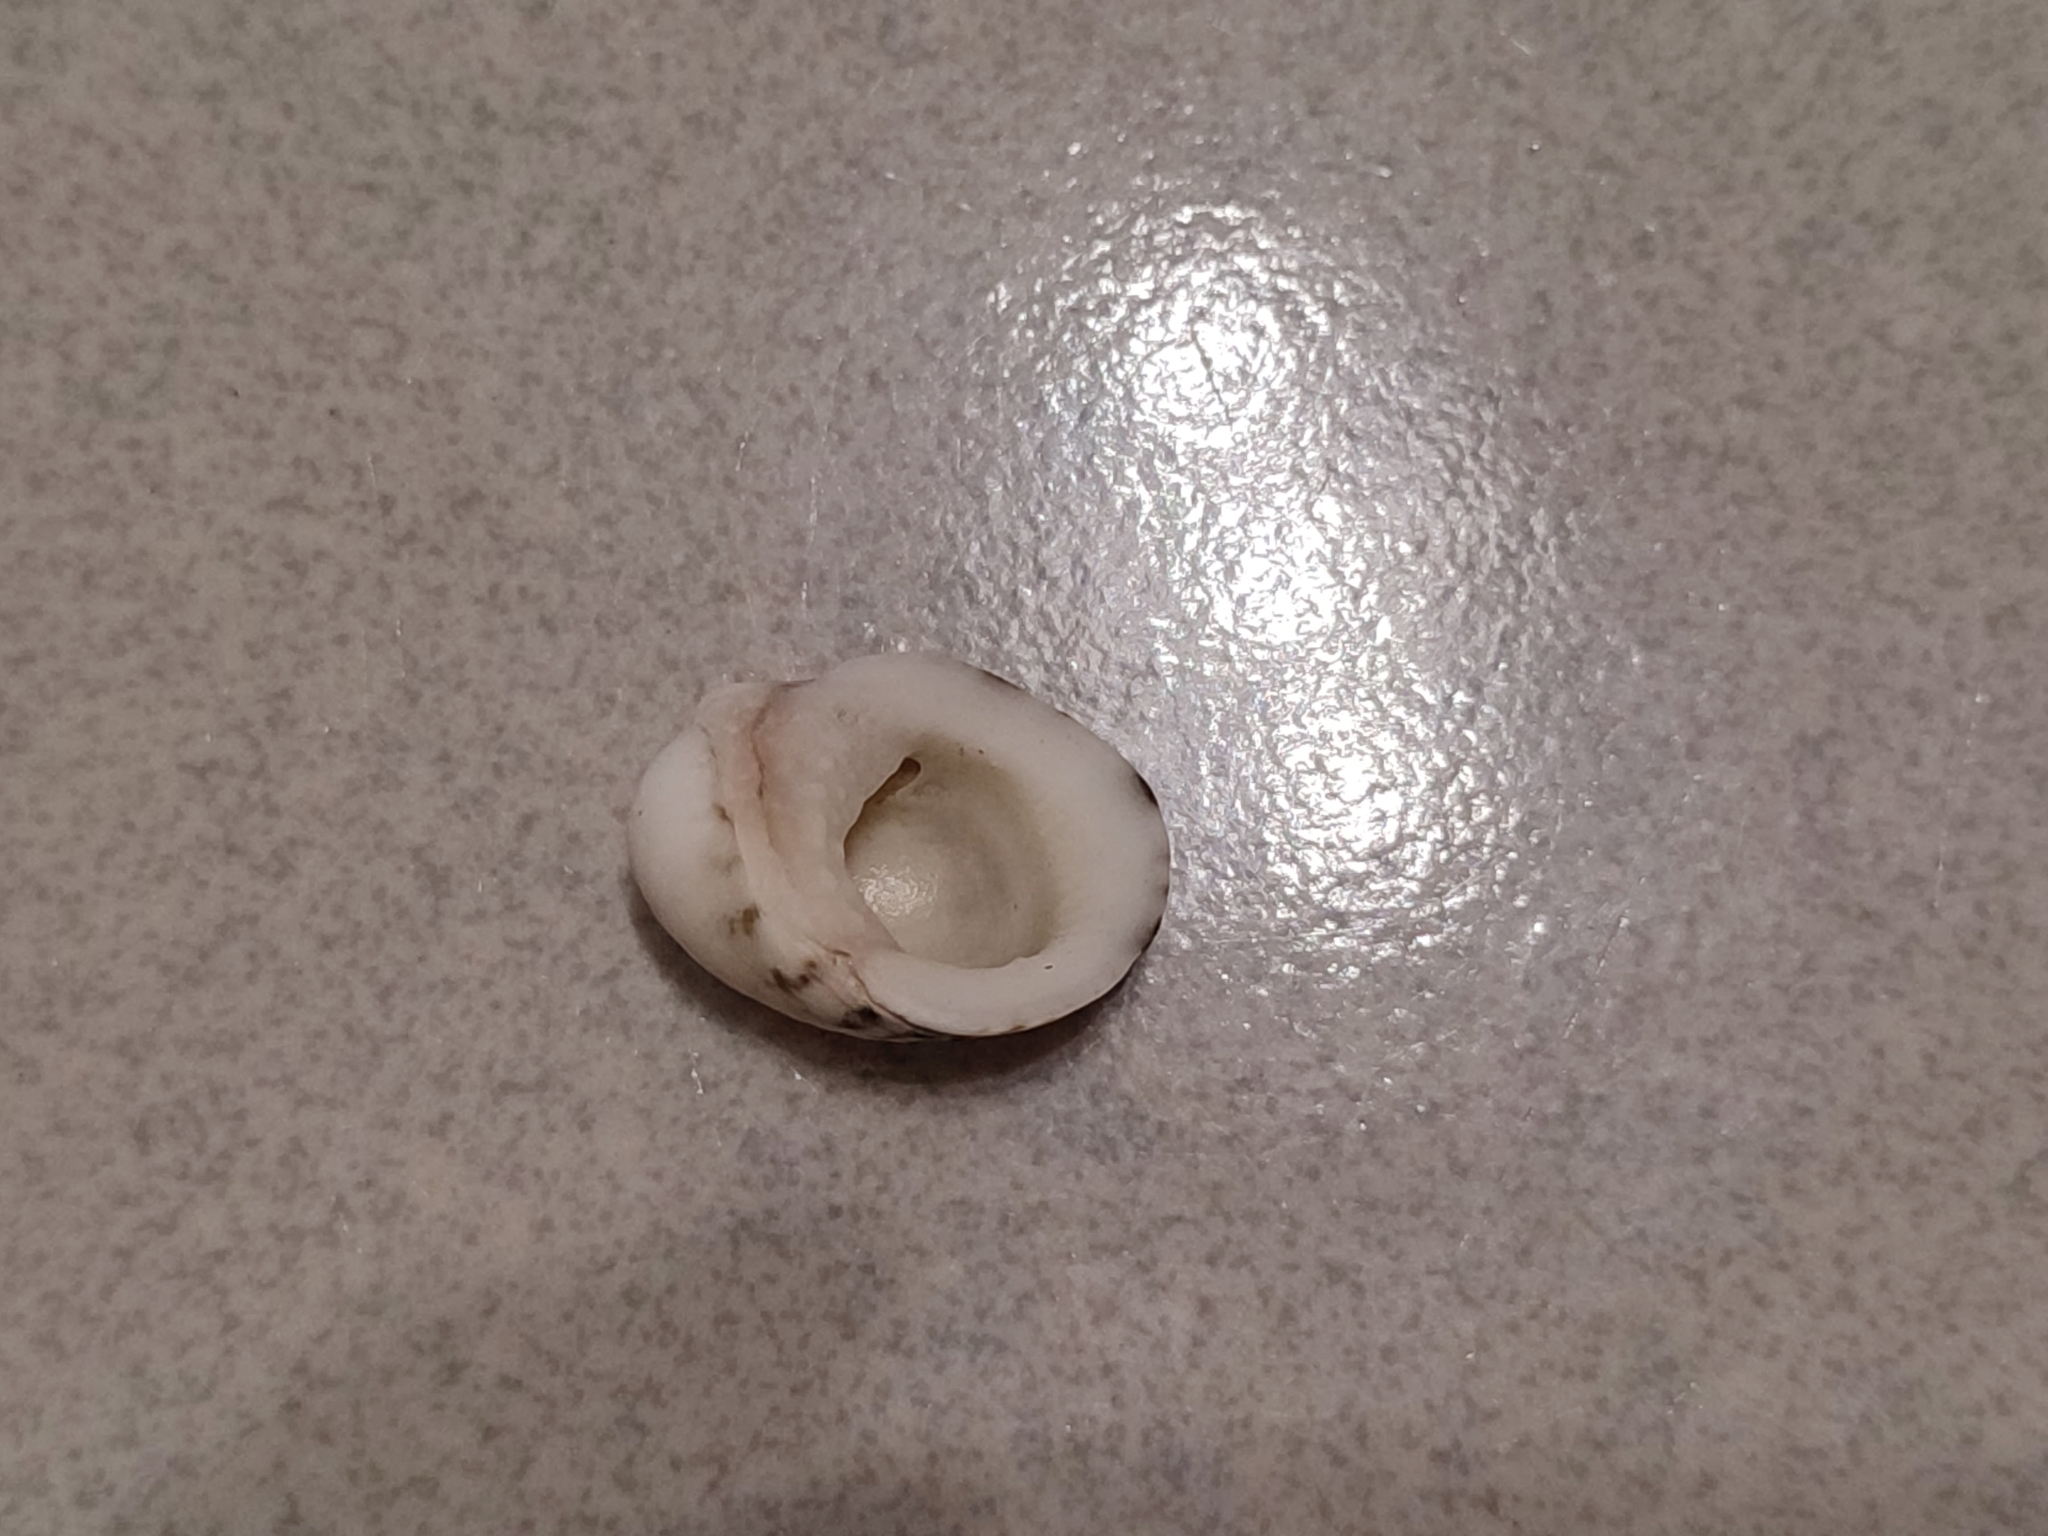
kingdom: Animalia
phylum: Mollusca
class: Gastropoda
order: Cycloneritida
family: Neritidae
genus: Nerita
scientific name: Nerita albicilla
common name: Blotched nerite
